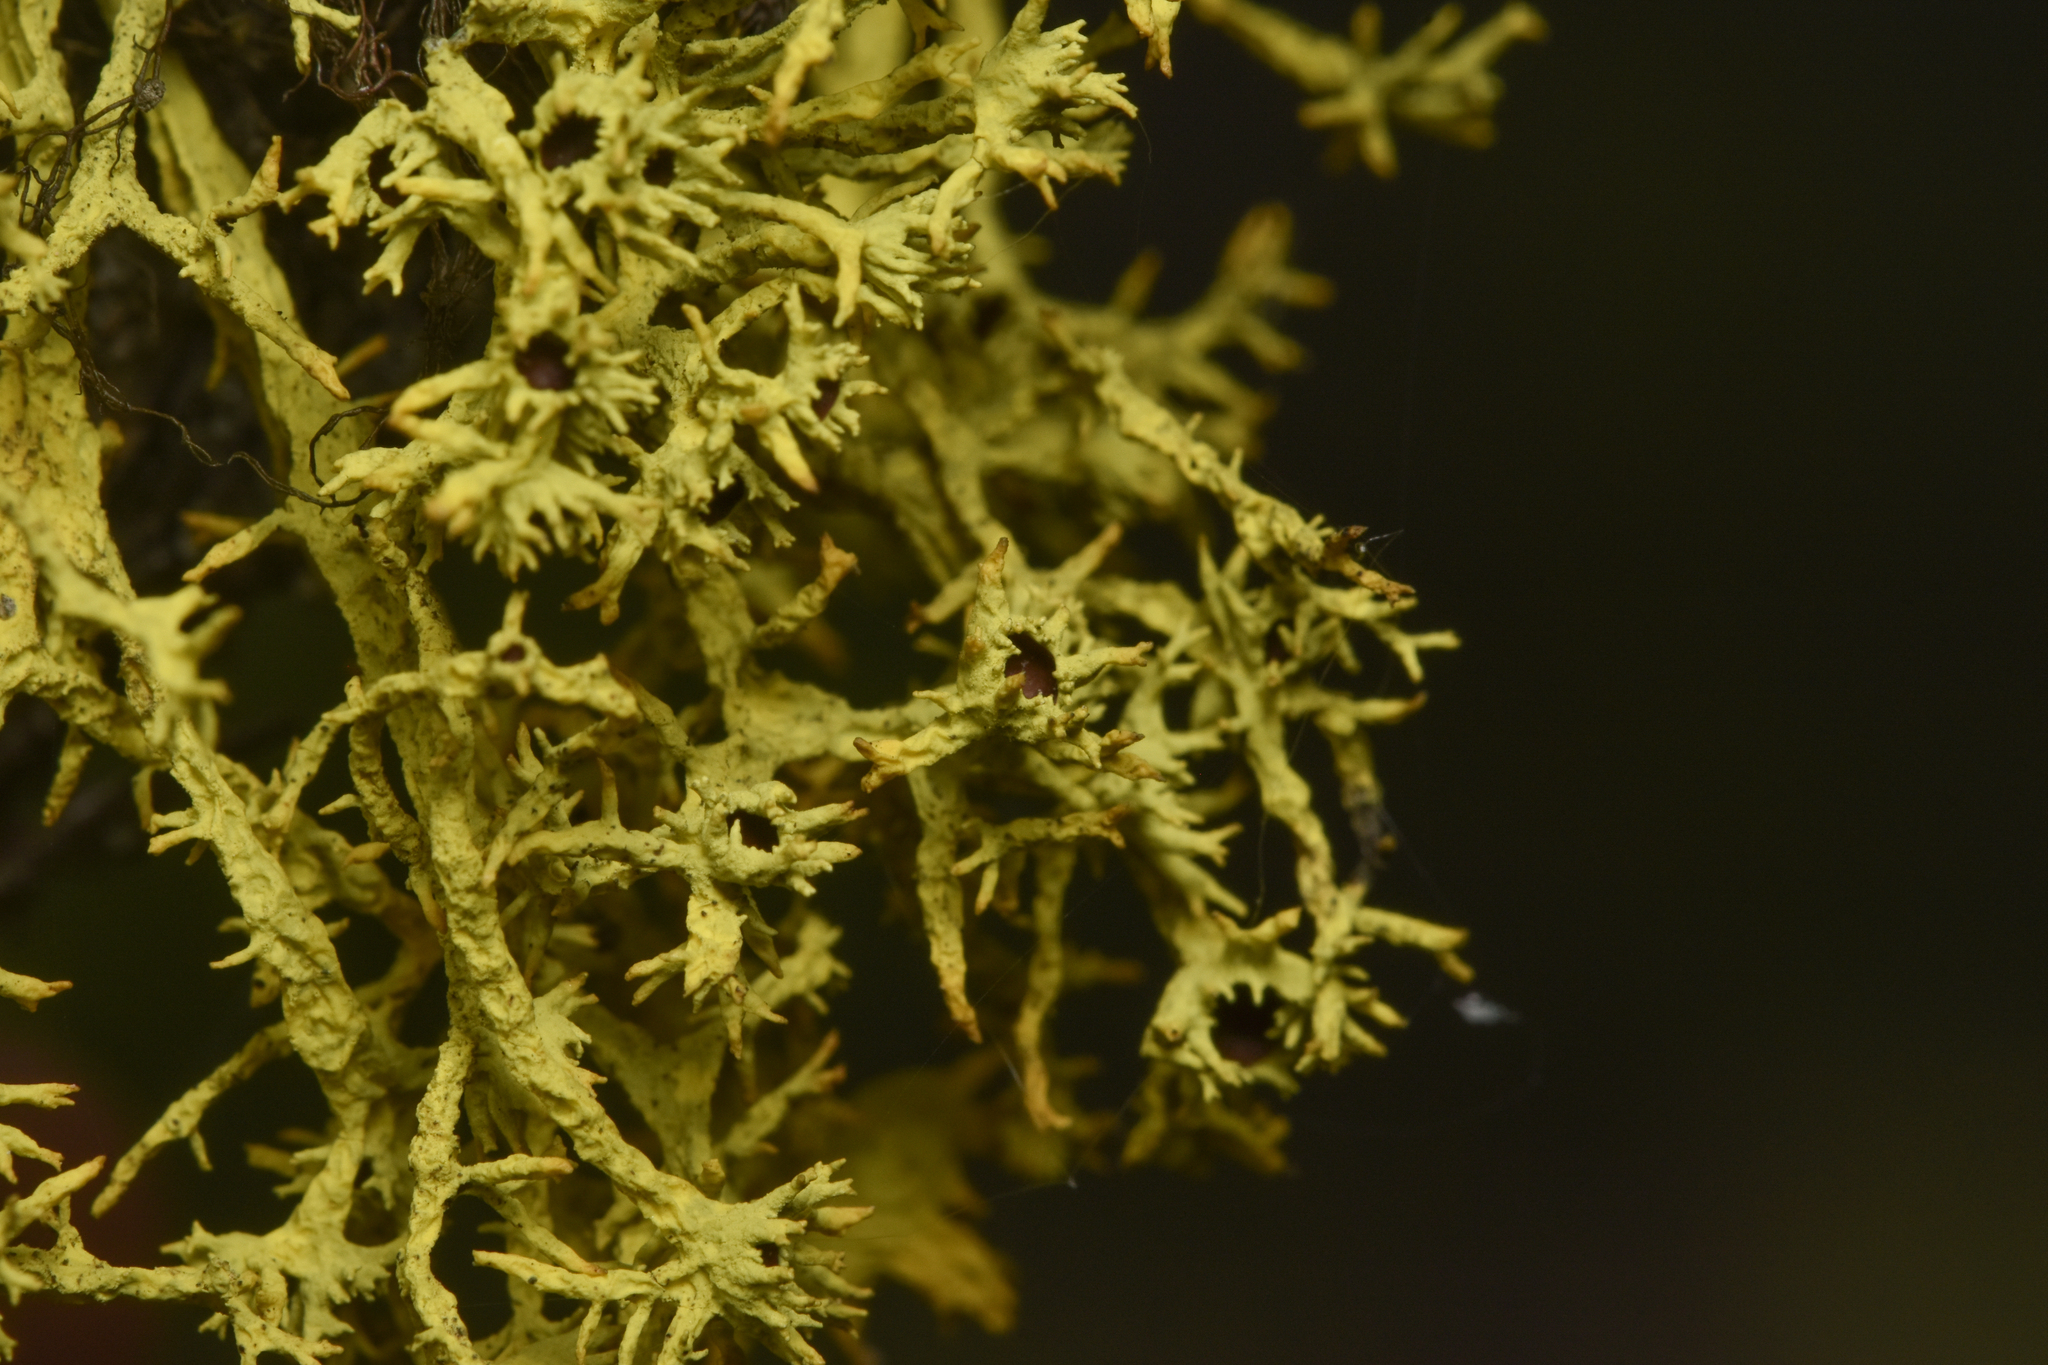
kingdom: Fungi
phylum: Ascomycota
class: Lecanoromycetes
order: Lecanorales
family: Parmeliaceae
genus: Letharia
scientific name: Letharia columbiana
